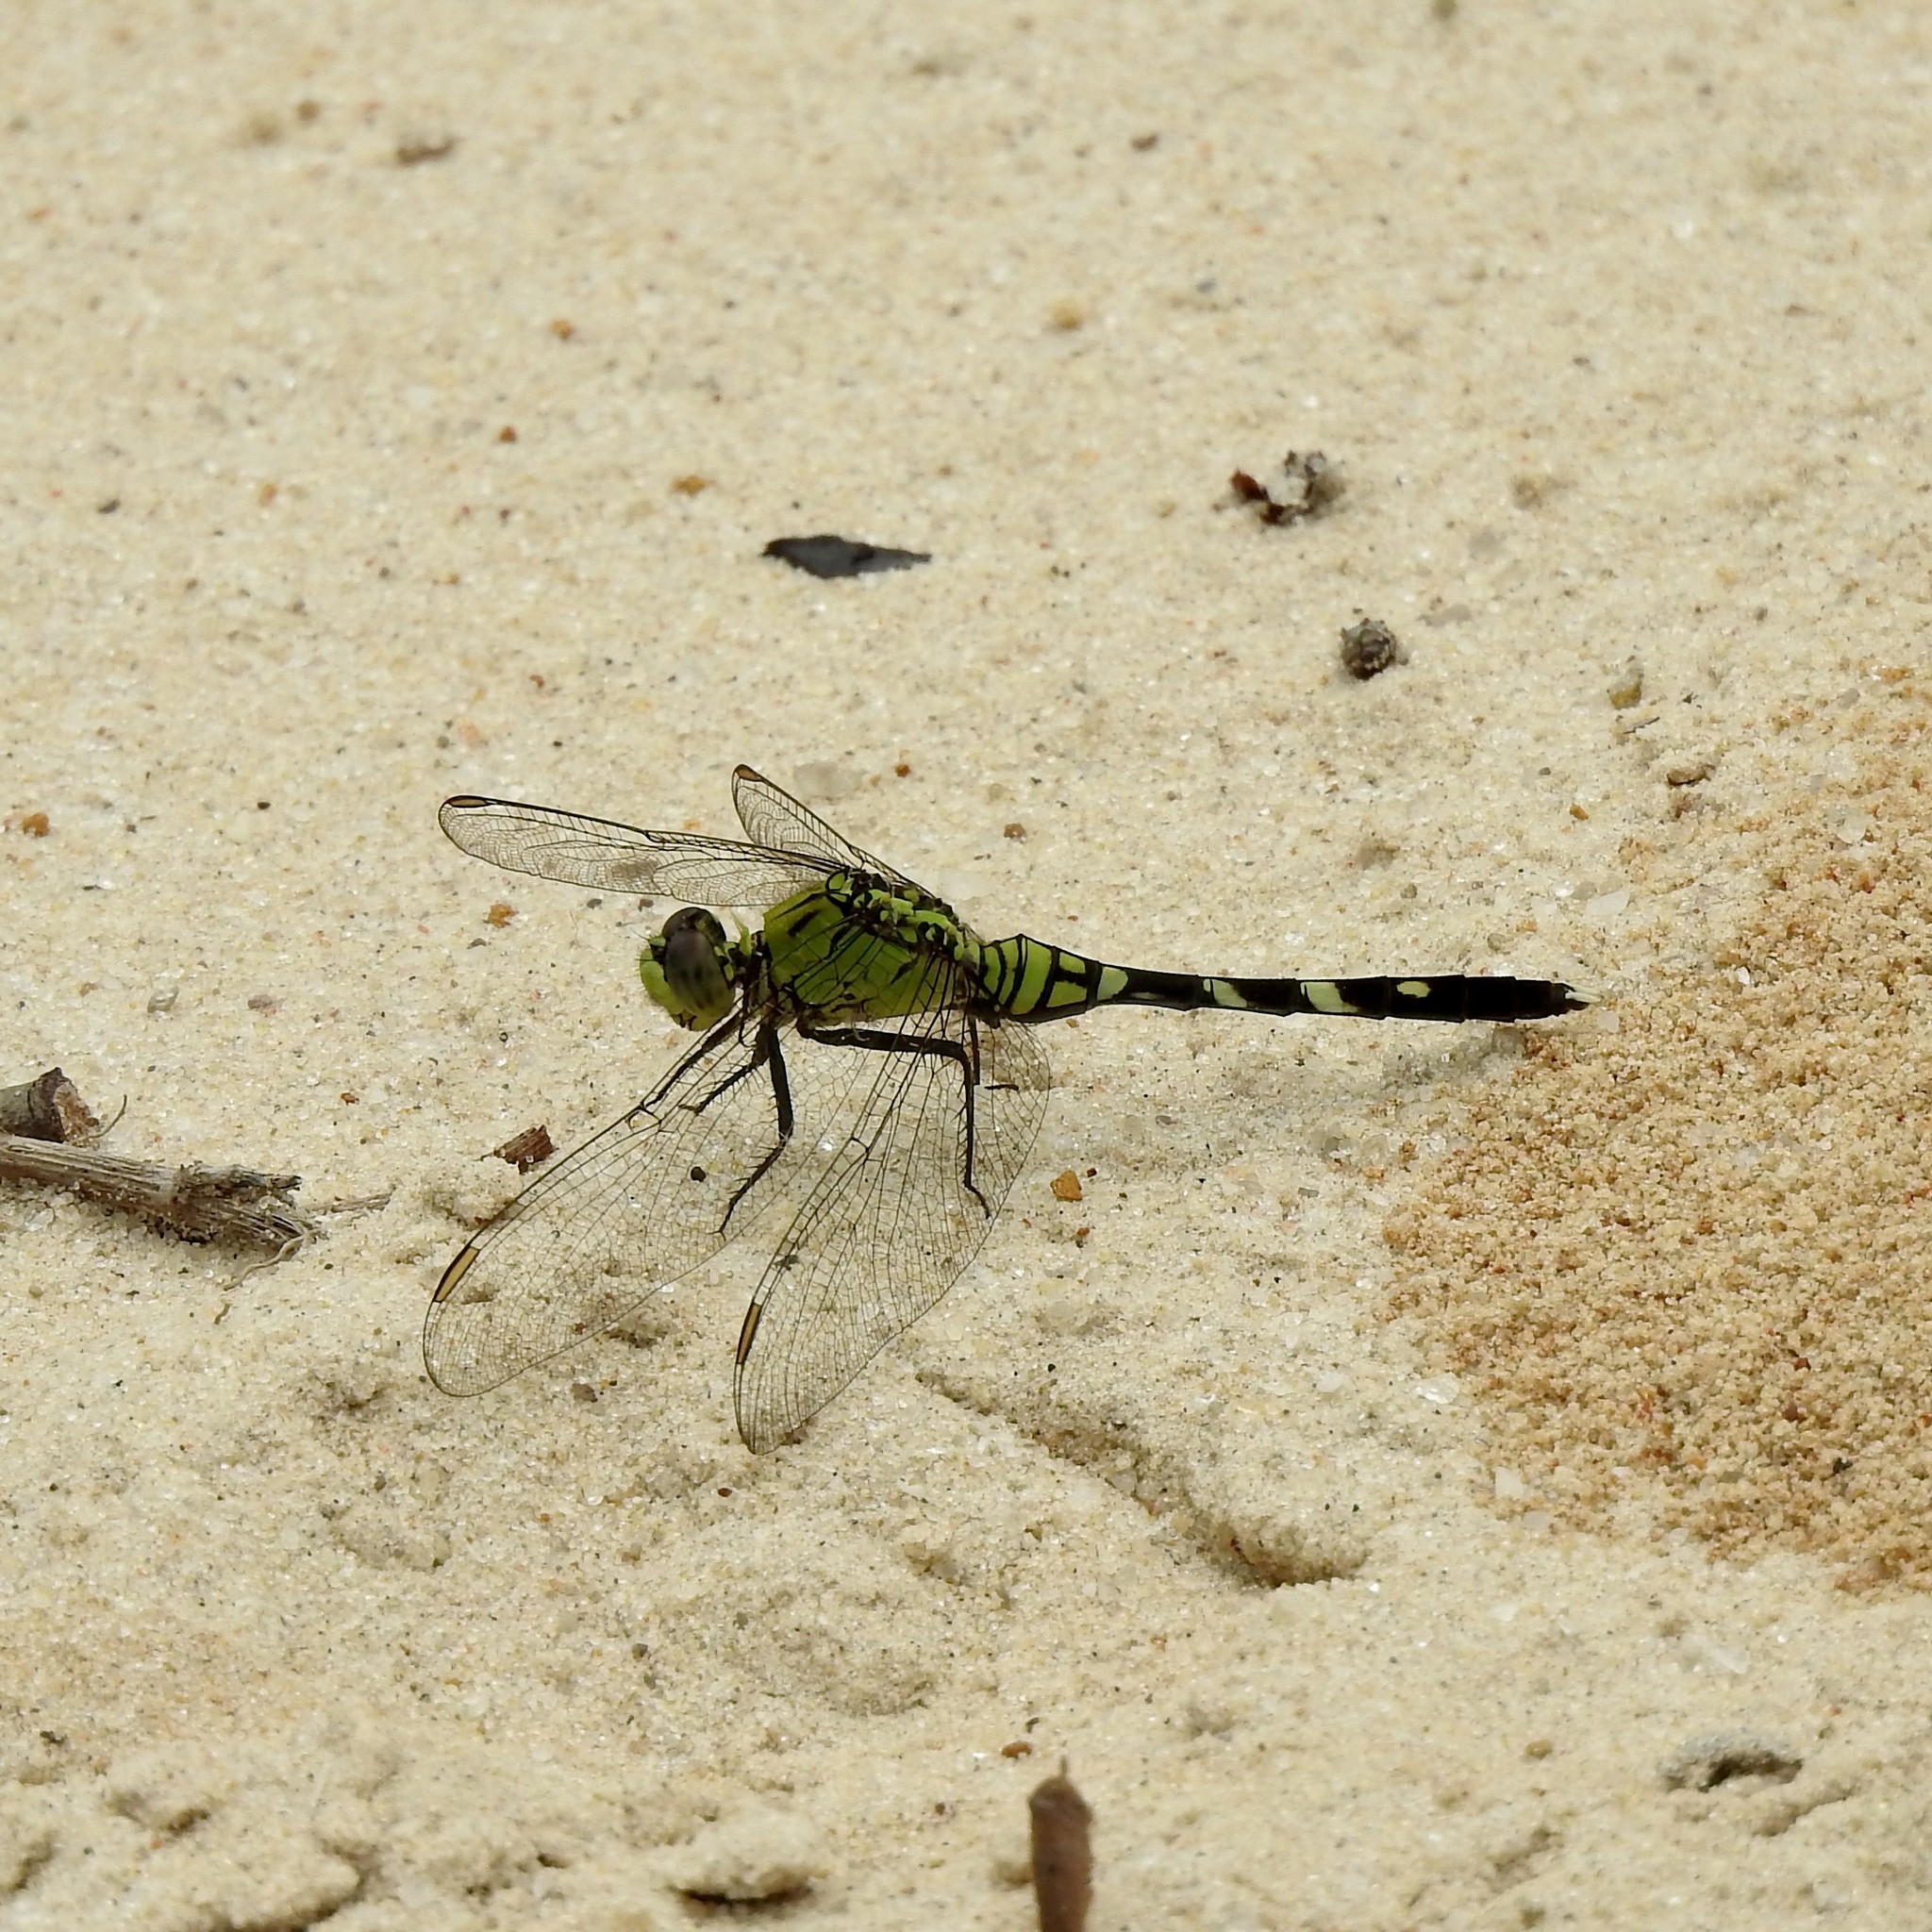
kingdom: Animalia
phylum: Arthropoda
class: Insecta
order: Odonata
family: Libellulidae
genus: Erythemis
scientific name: Erythemis simplicicollis
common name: Eastern pondhawk
